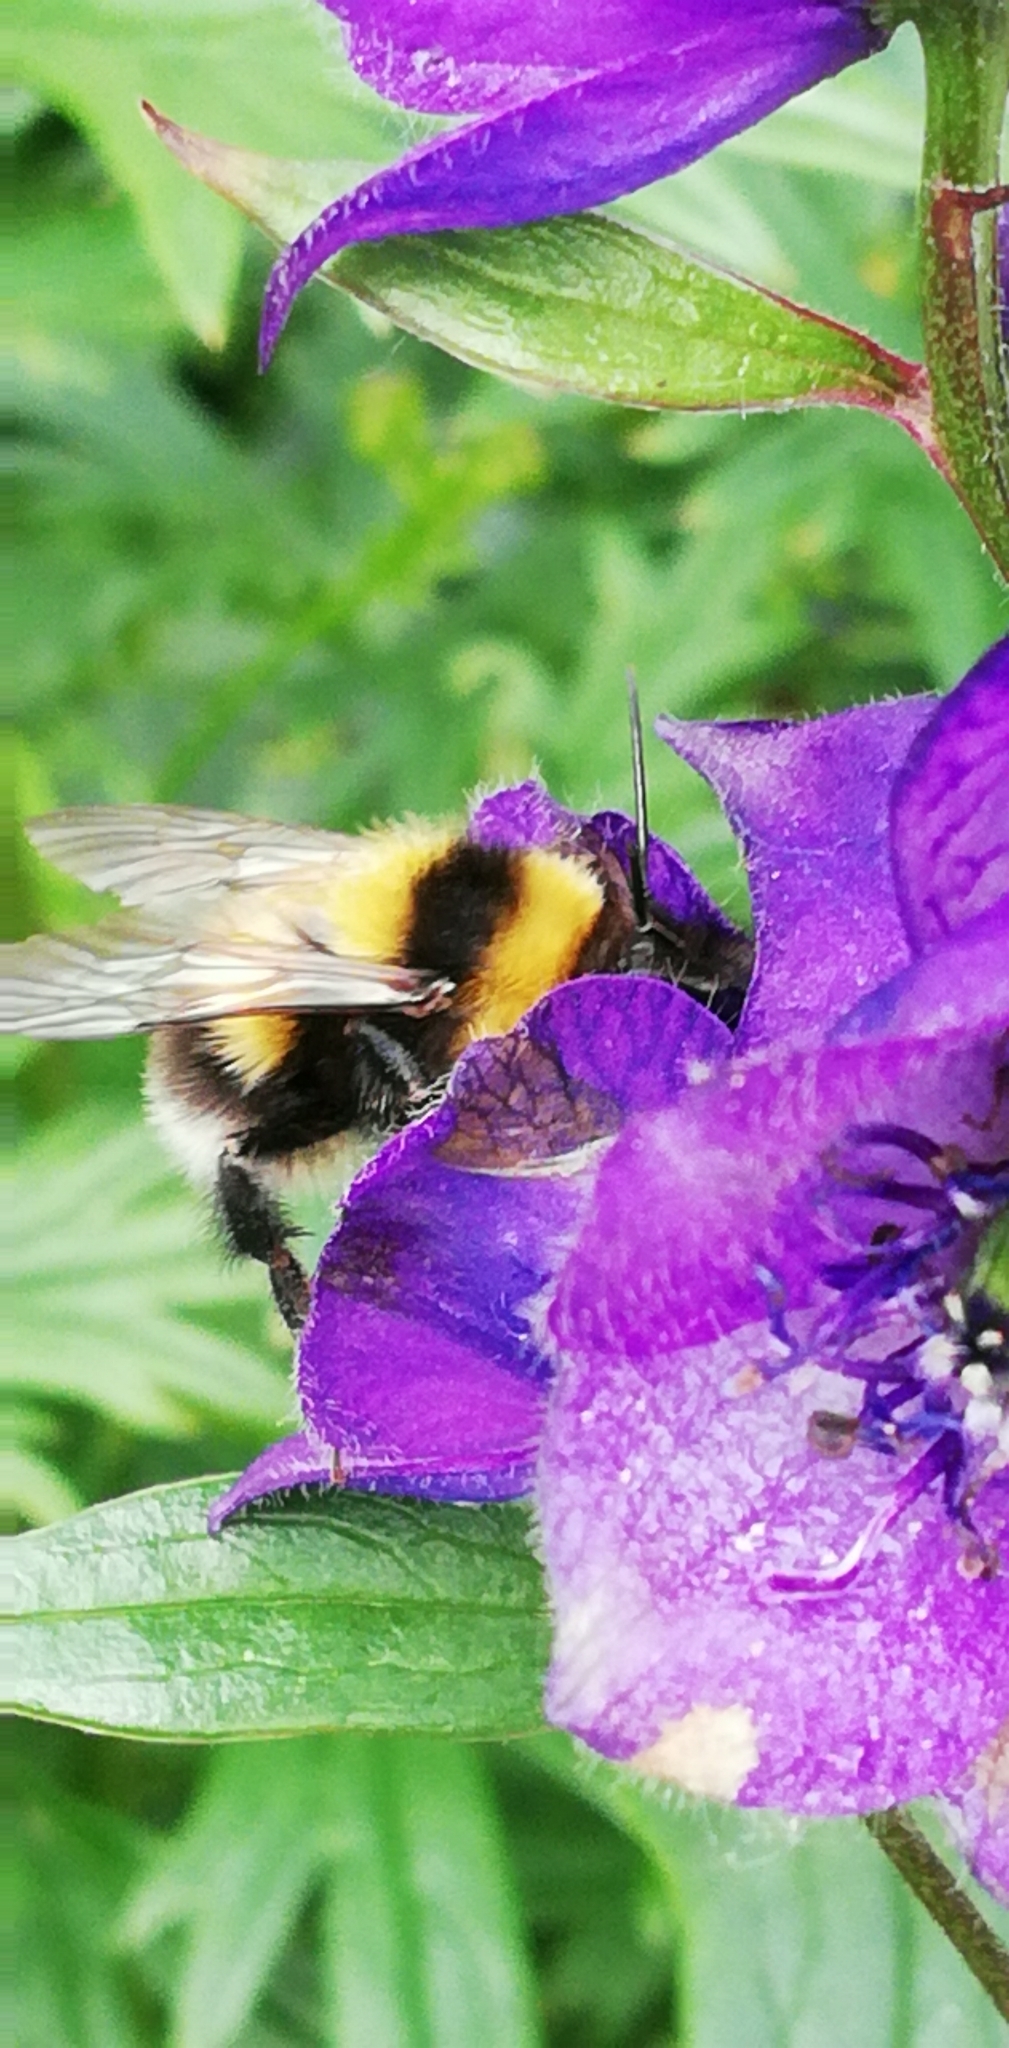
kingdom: Animalia
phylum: Arthropoda
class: Insecta
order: Hymenoptera
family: Apidae
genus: Bombus
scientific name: Bombus hortorum
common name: Garden bumblebee
